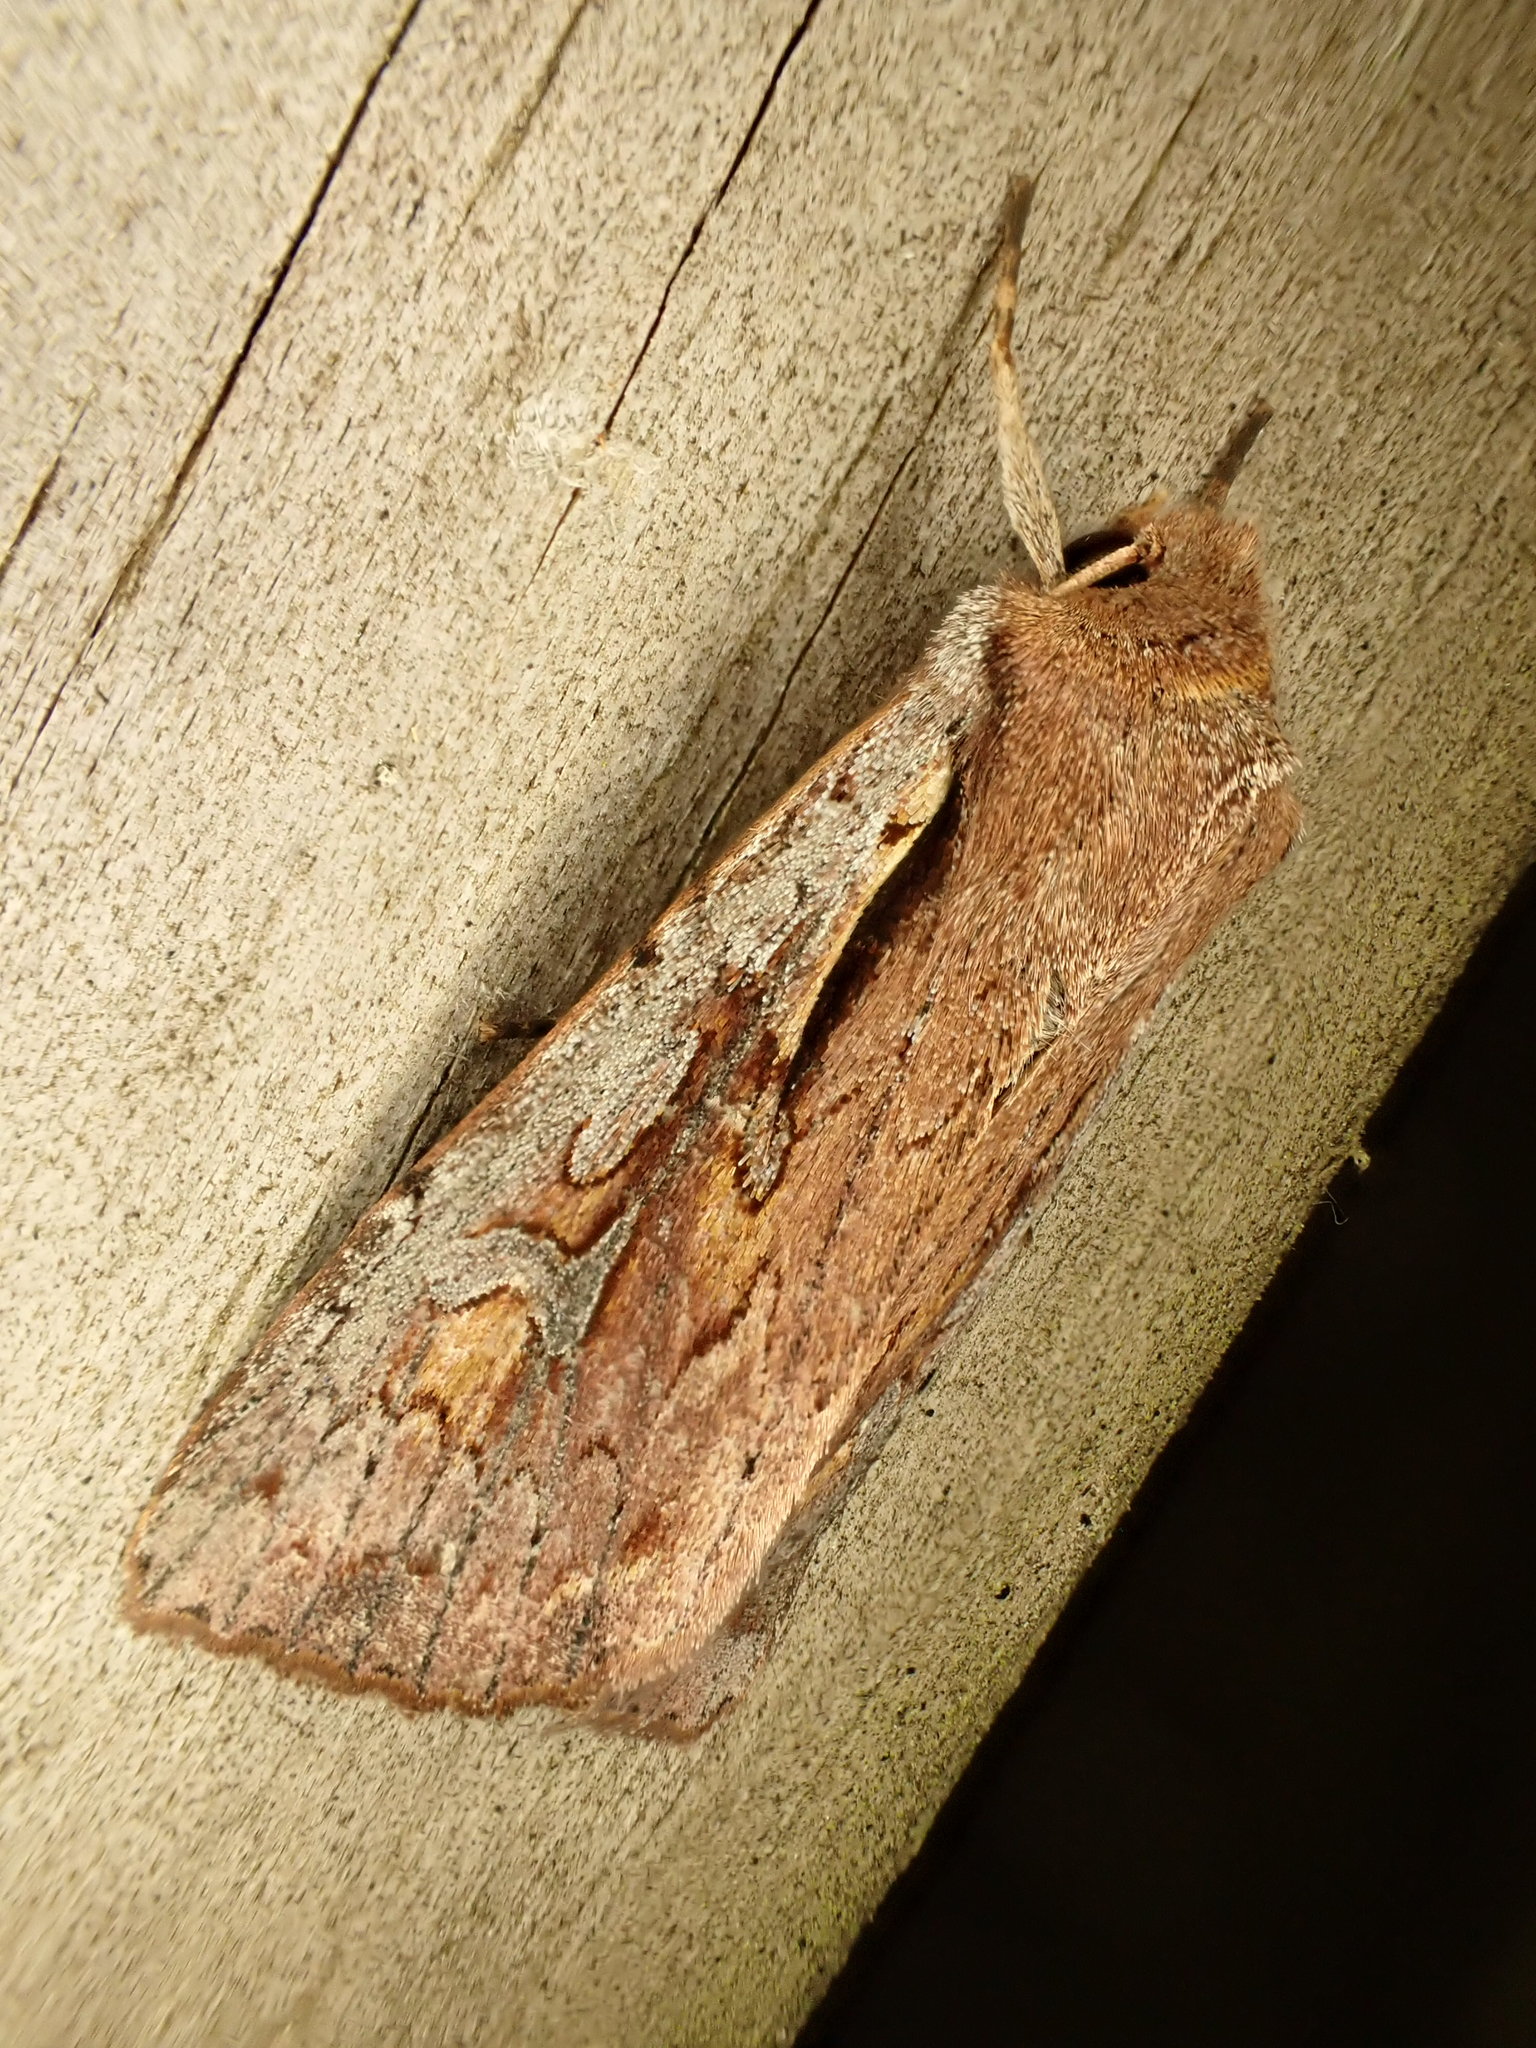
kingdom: Animalia
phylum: Arthropoda
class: Insecta
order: Lepidoptera
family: Noctuidae
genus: Ichneutica
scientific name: Ichneutica atristriga
